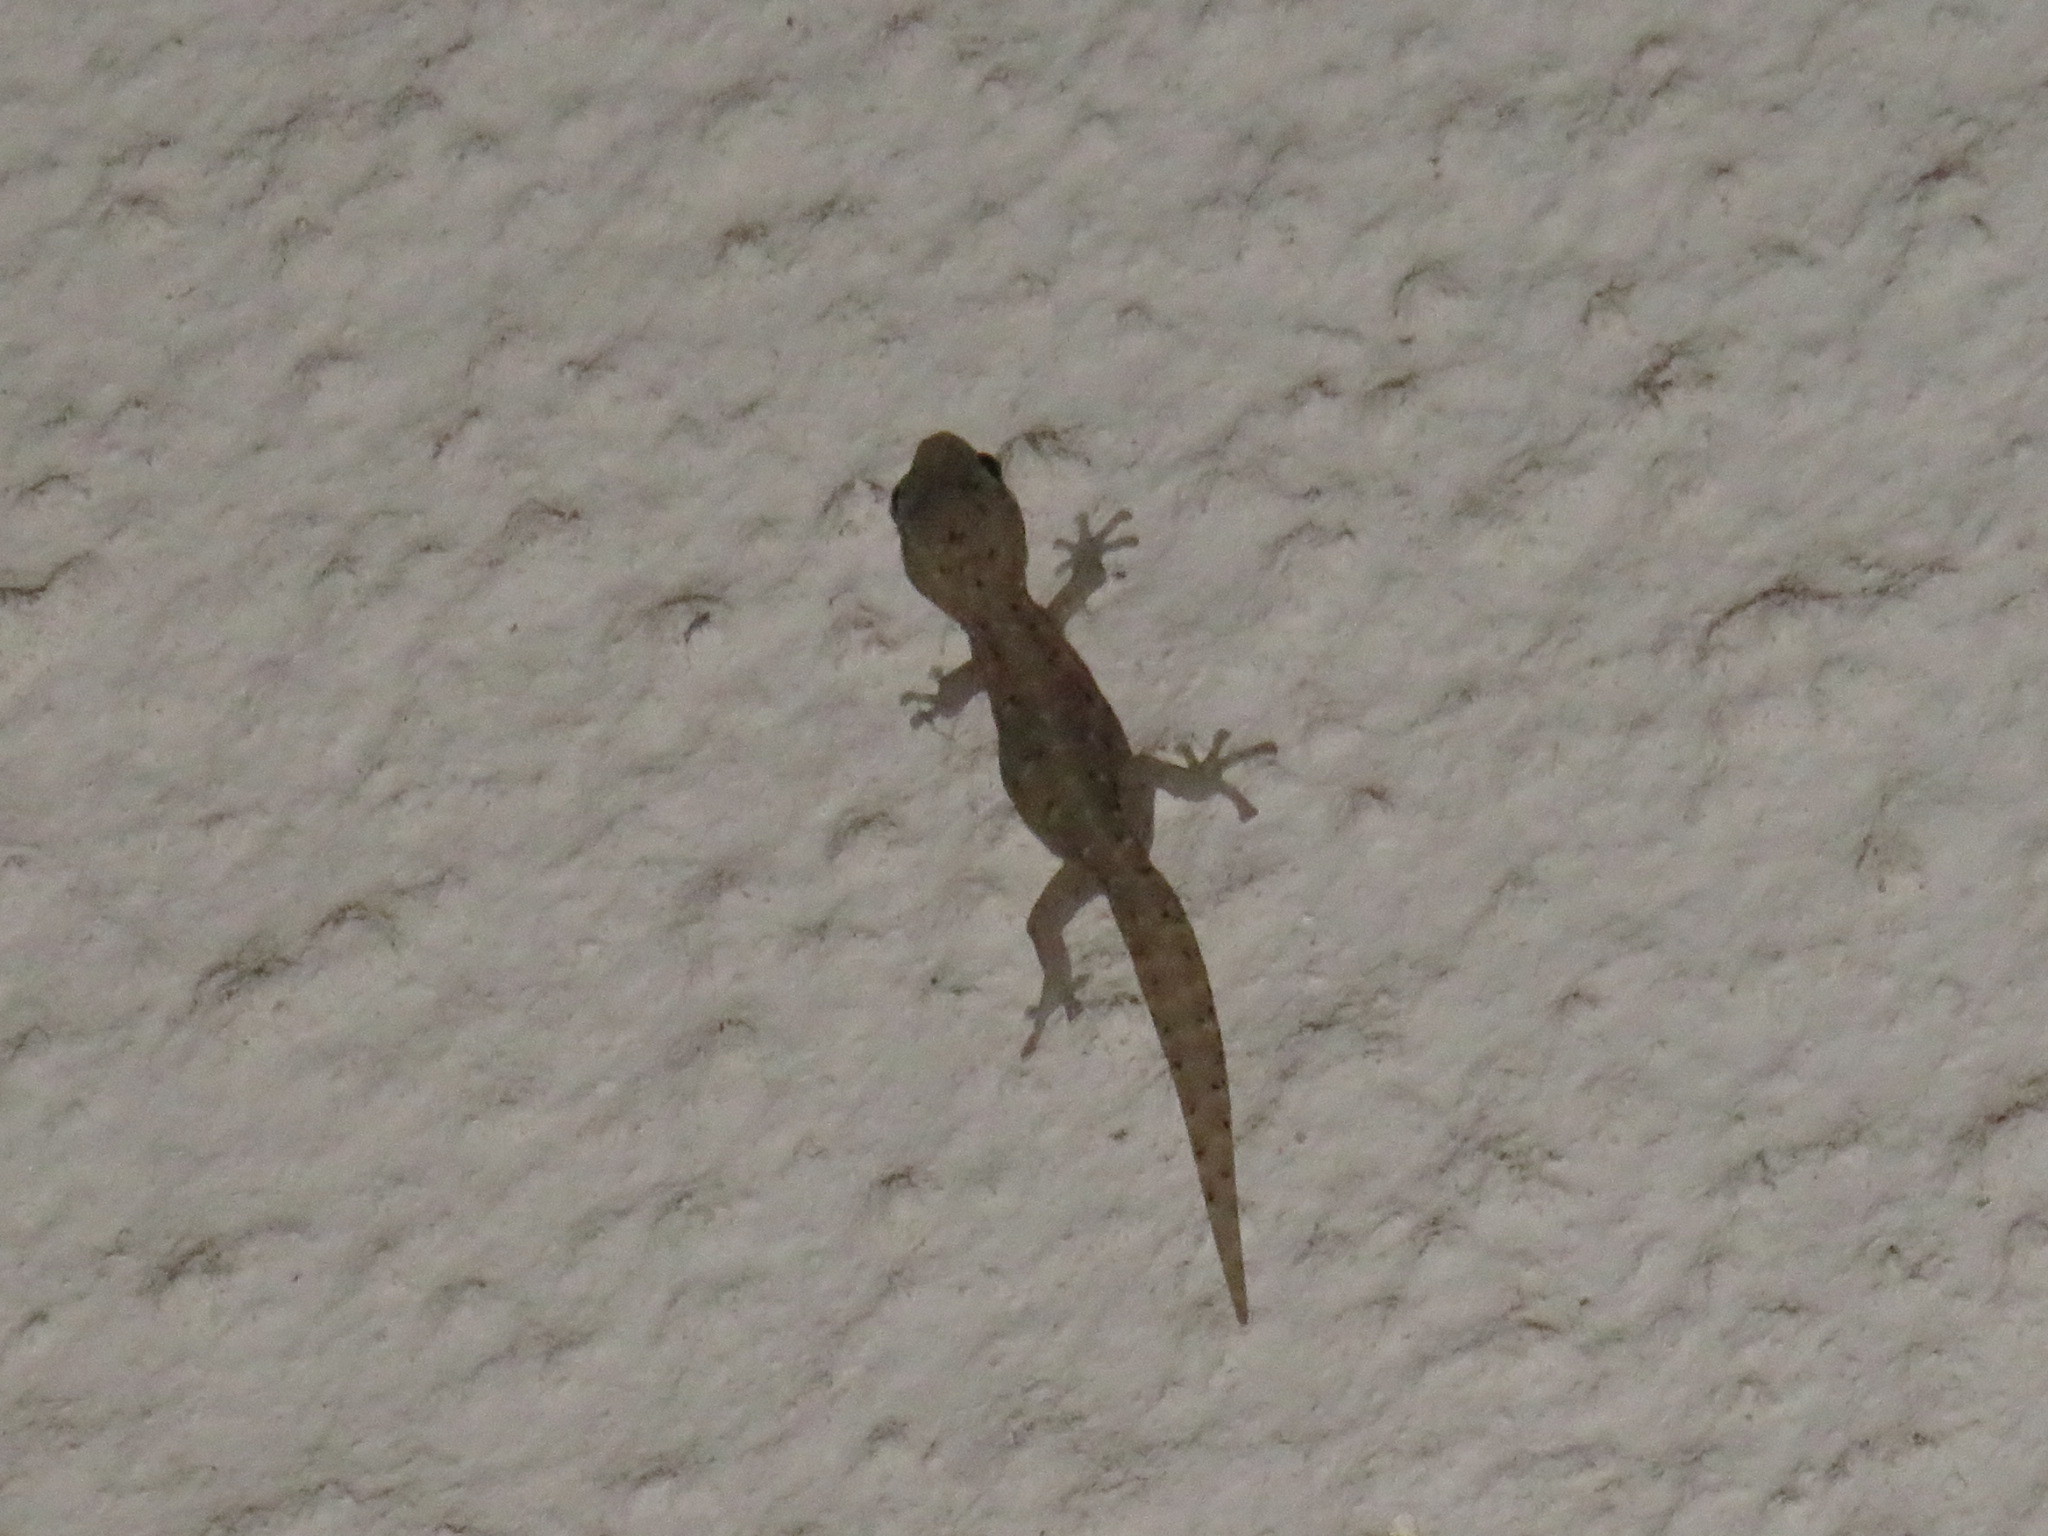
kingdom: Animalia
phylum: Chordata
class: Squamata
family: Gekkonidae
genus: Afrogecko
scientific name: Afrogecko porphyreus
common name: Marbled leaf-toed gecko
